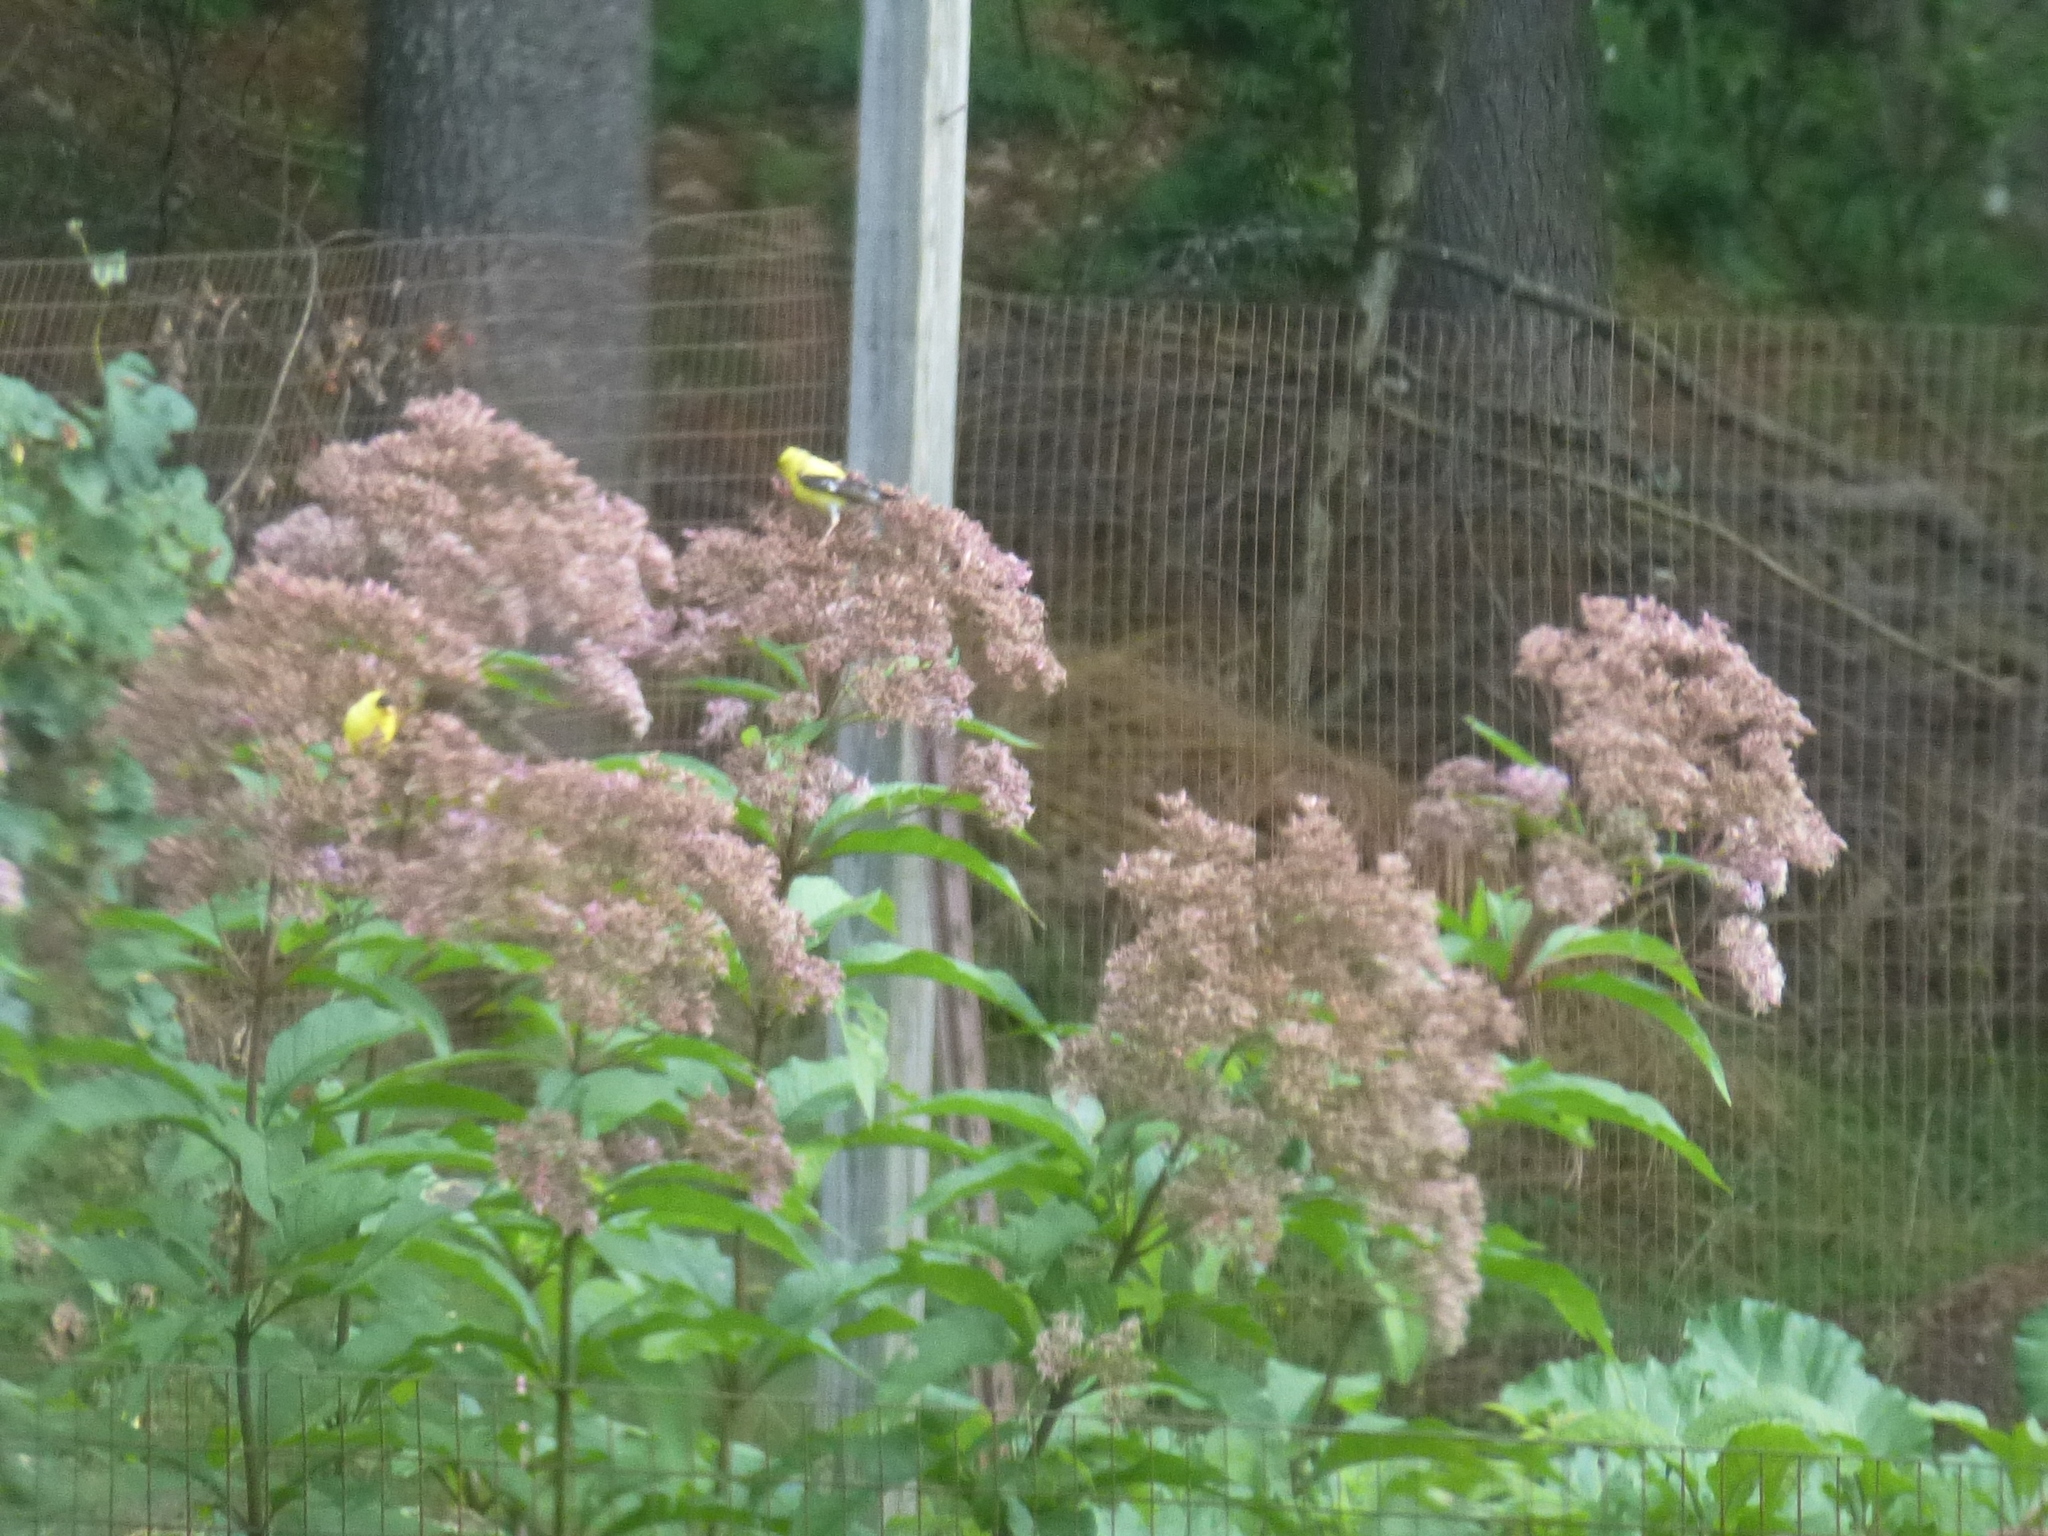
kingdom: Animalia
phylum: Chordata
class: Aves
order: Passeriformes
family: Fringillidae
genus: Spinus
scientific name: Spinus tristis
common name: American goldfinch
